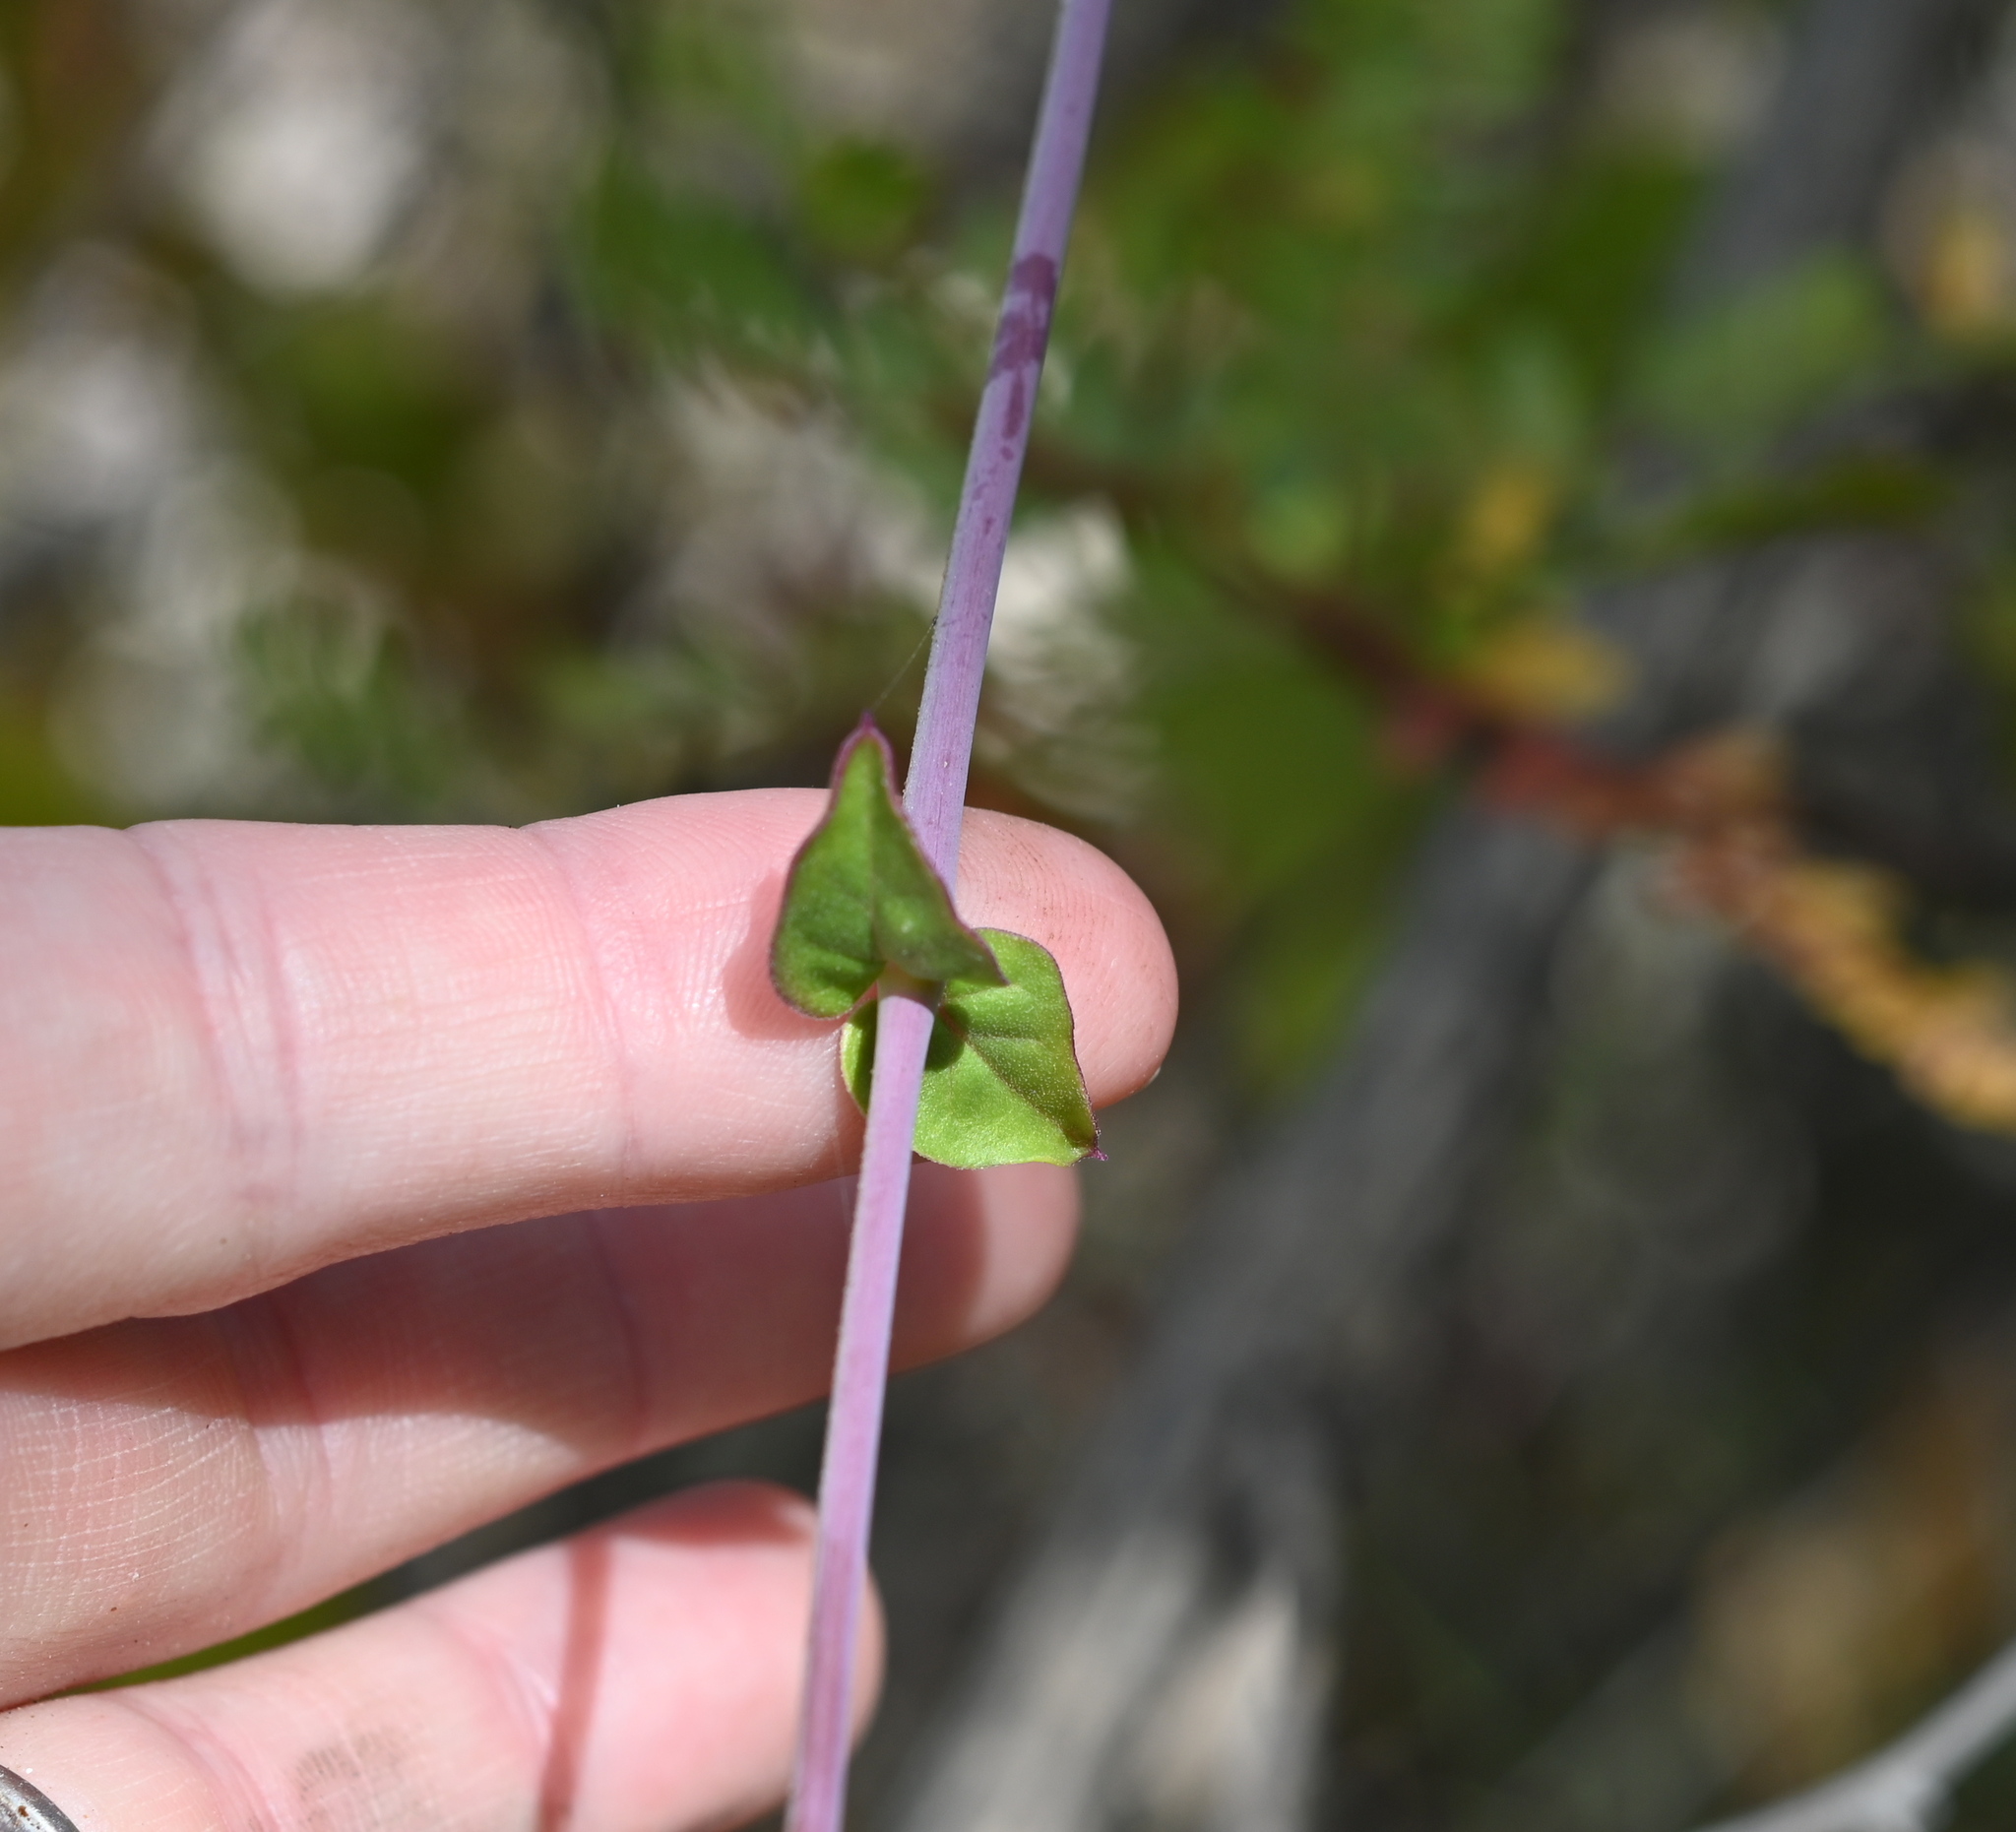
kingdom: Plantae
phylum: Tracheophyta
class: Magnoliopsida
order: Caryophyllales
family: Nyctaginaceae
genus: Commicarpus
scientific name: Commicarpus brandegeei
